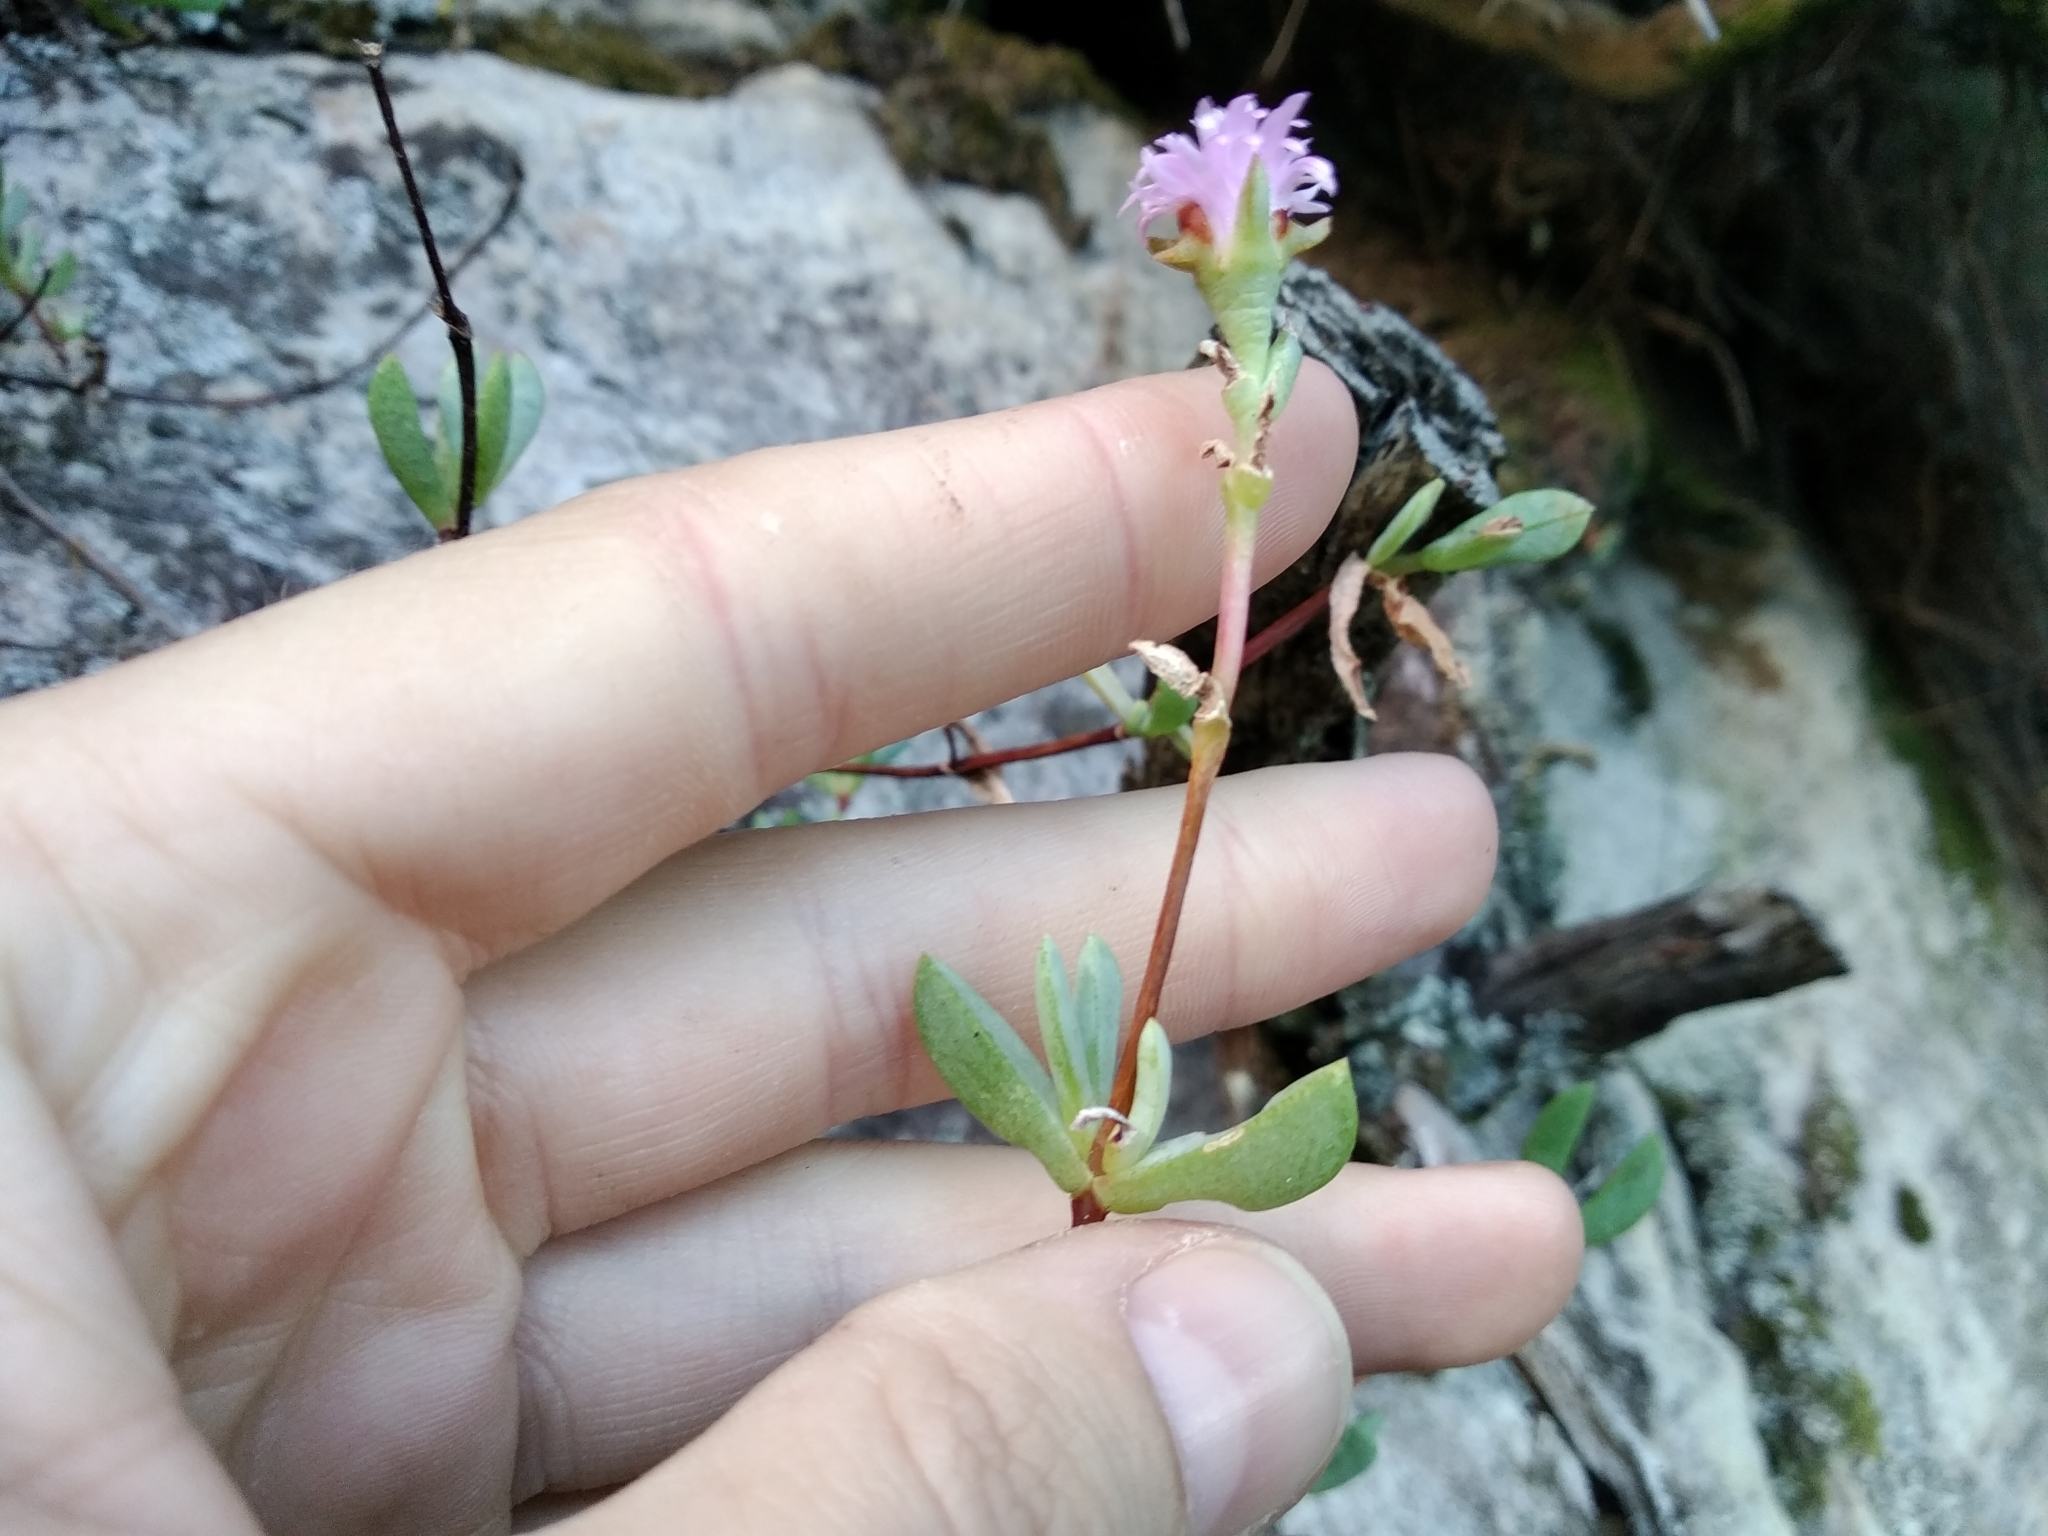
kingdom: Plantae
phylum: Tracheophyta
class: Magnoliopsida
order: Caryophyllales
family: Aizoaceae
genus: Oscularia
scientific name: Oscularia falciformis
